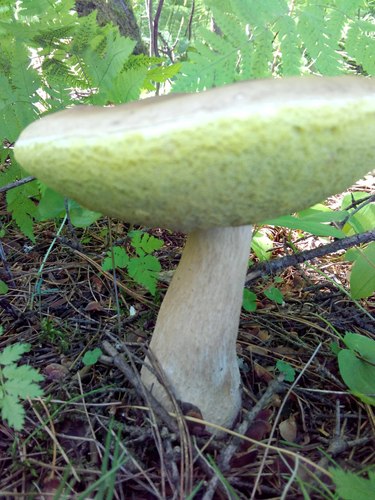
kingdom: Fungi
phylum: Basidiomycota
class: Agaricomycetes
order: Boletales
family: Boletaceae
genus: Boletus
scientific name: Boletus edulis
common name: Cep
